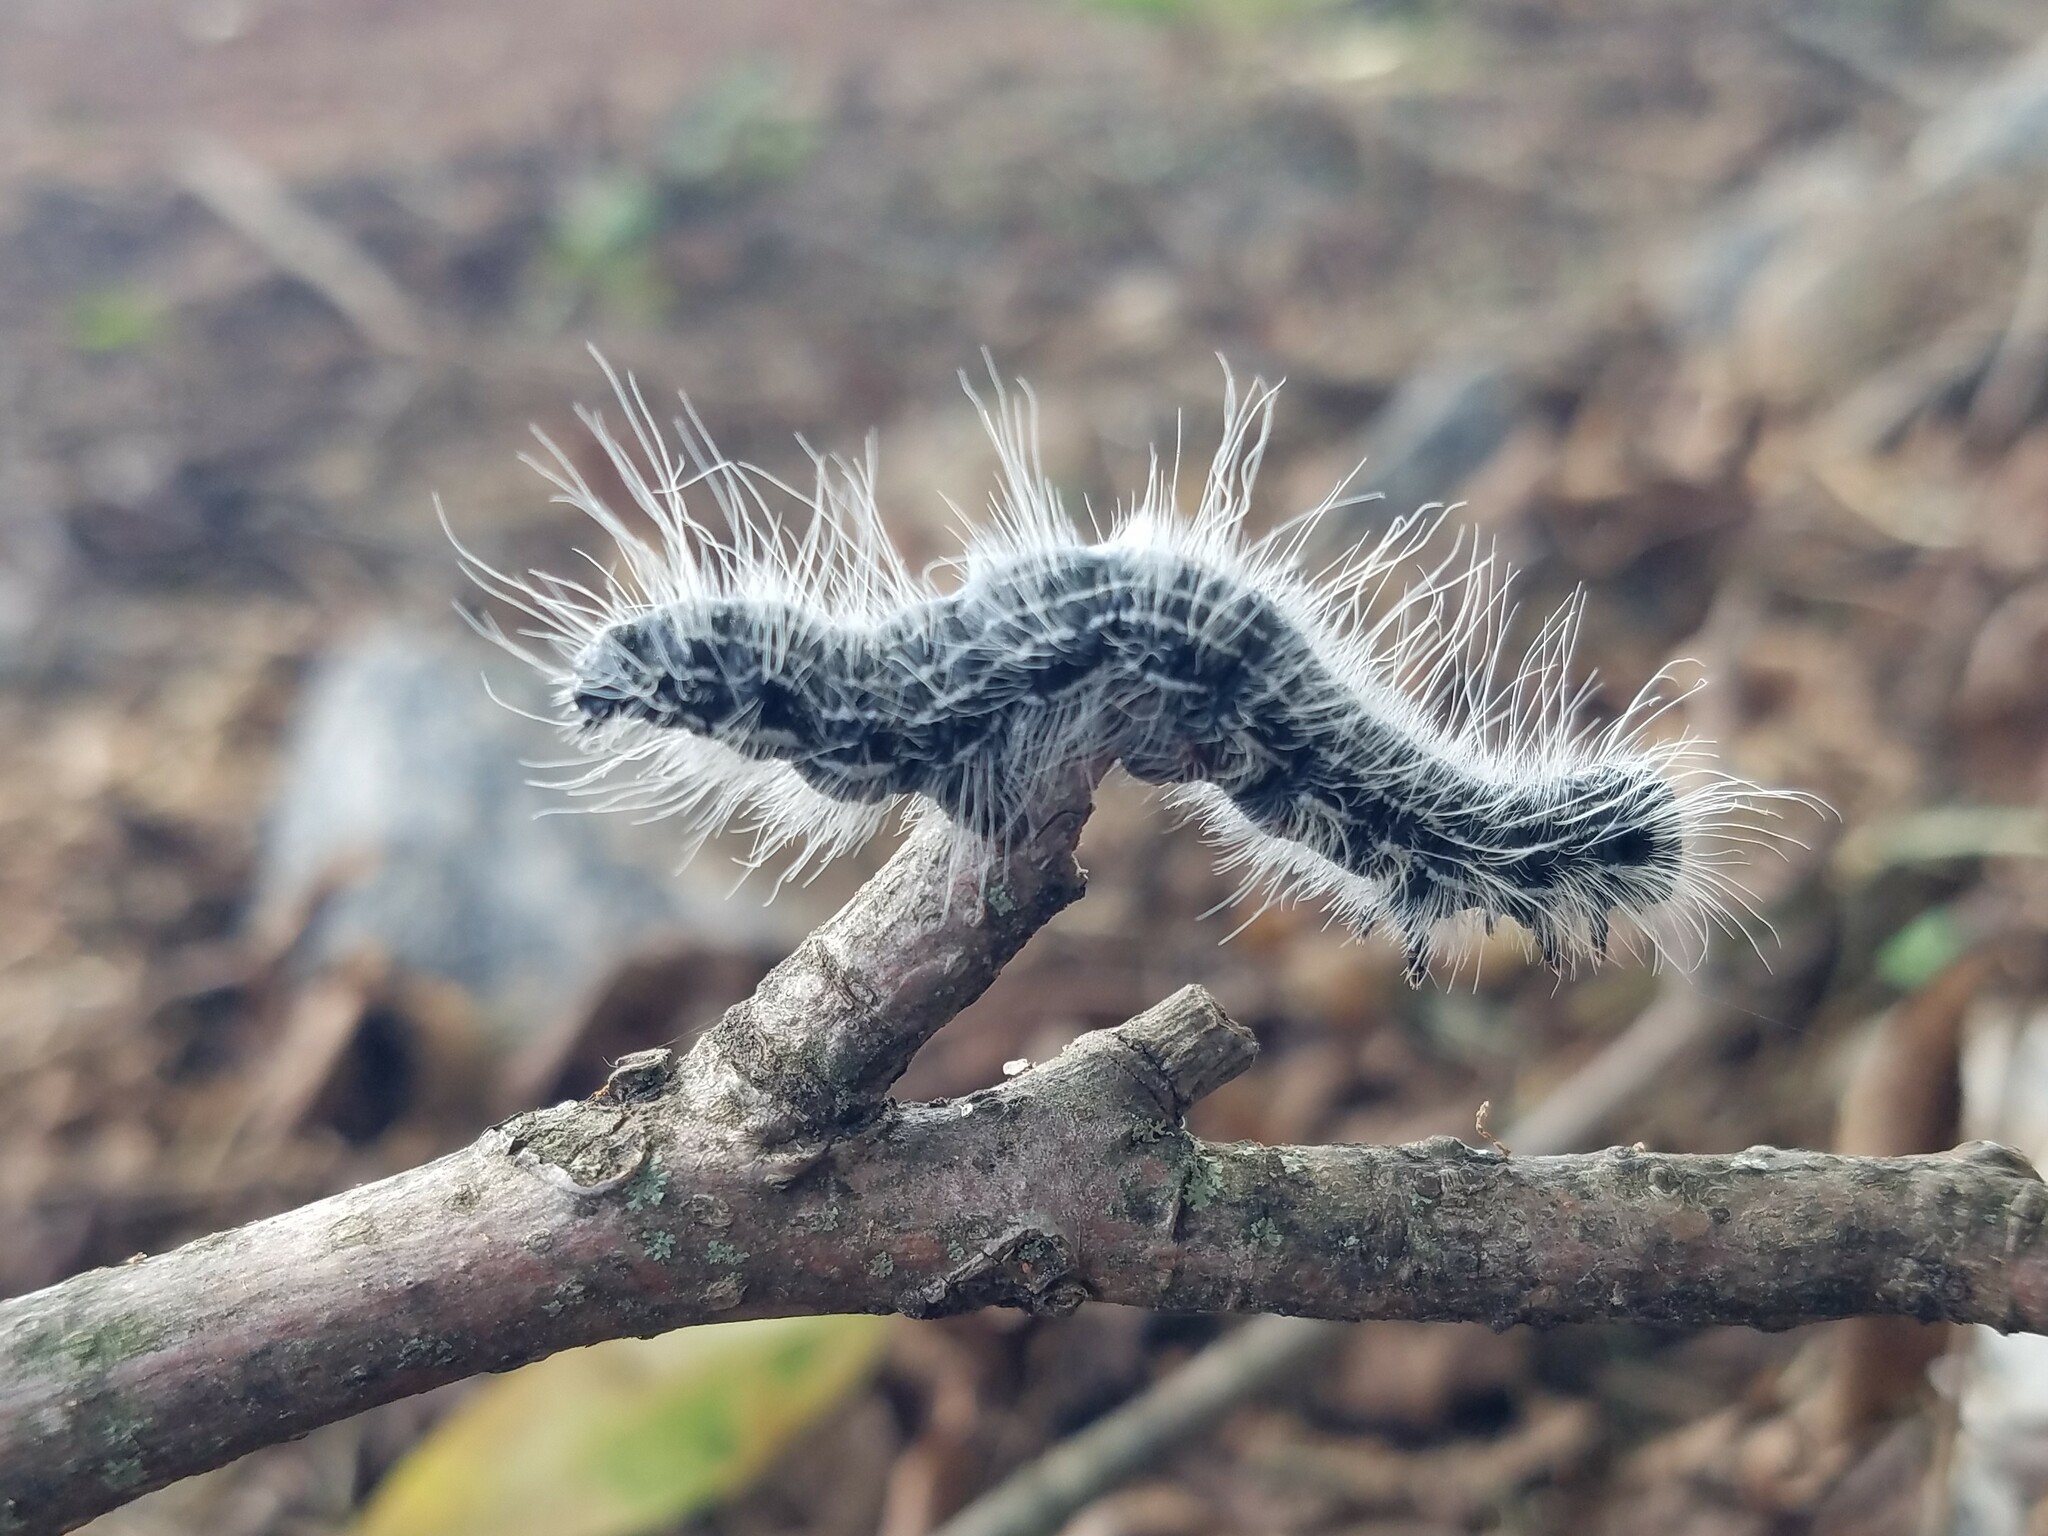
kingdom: Animalia
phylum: Arthropoda
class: Insecta
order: Lepidoptera
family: Notodontidae
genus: Datana
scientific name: Datana integerrima
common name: Walnut caterpillar
